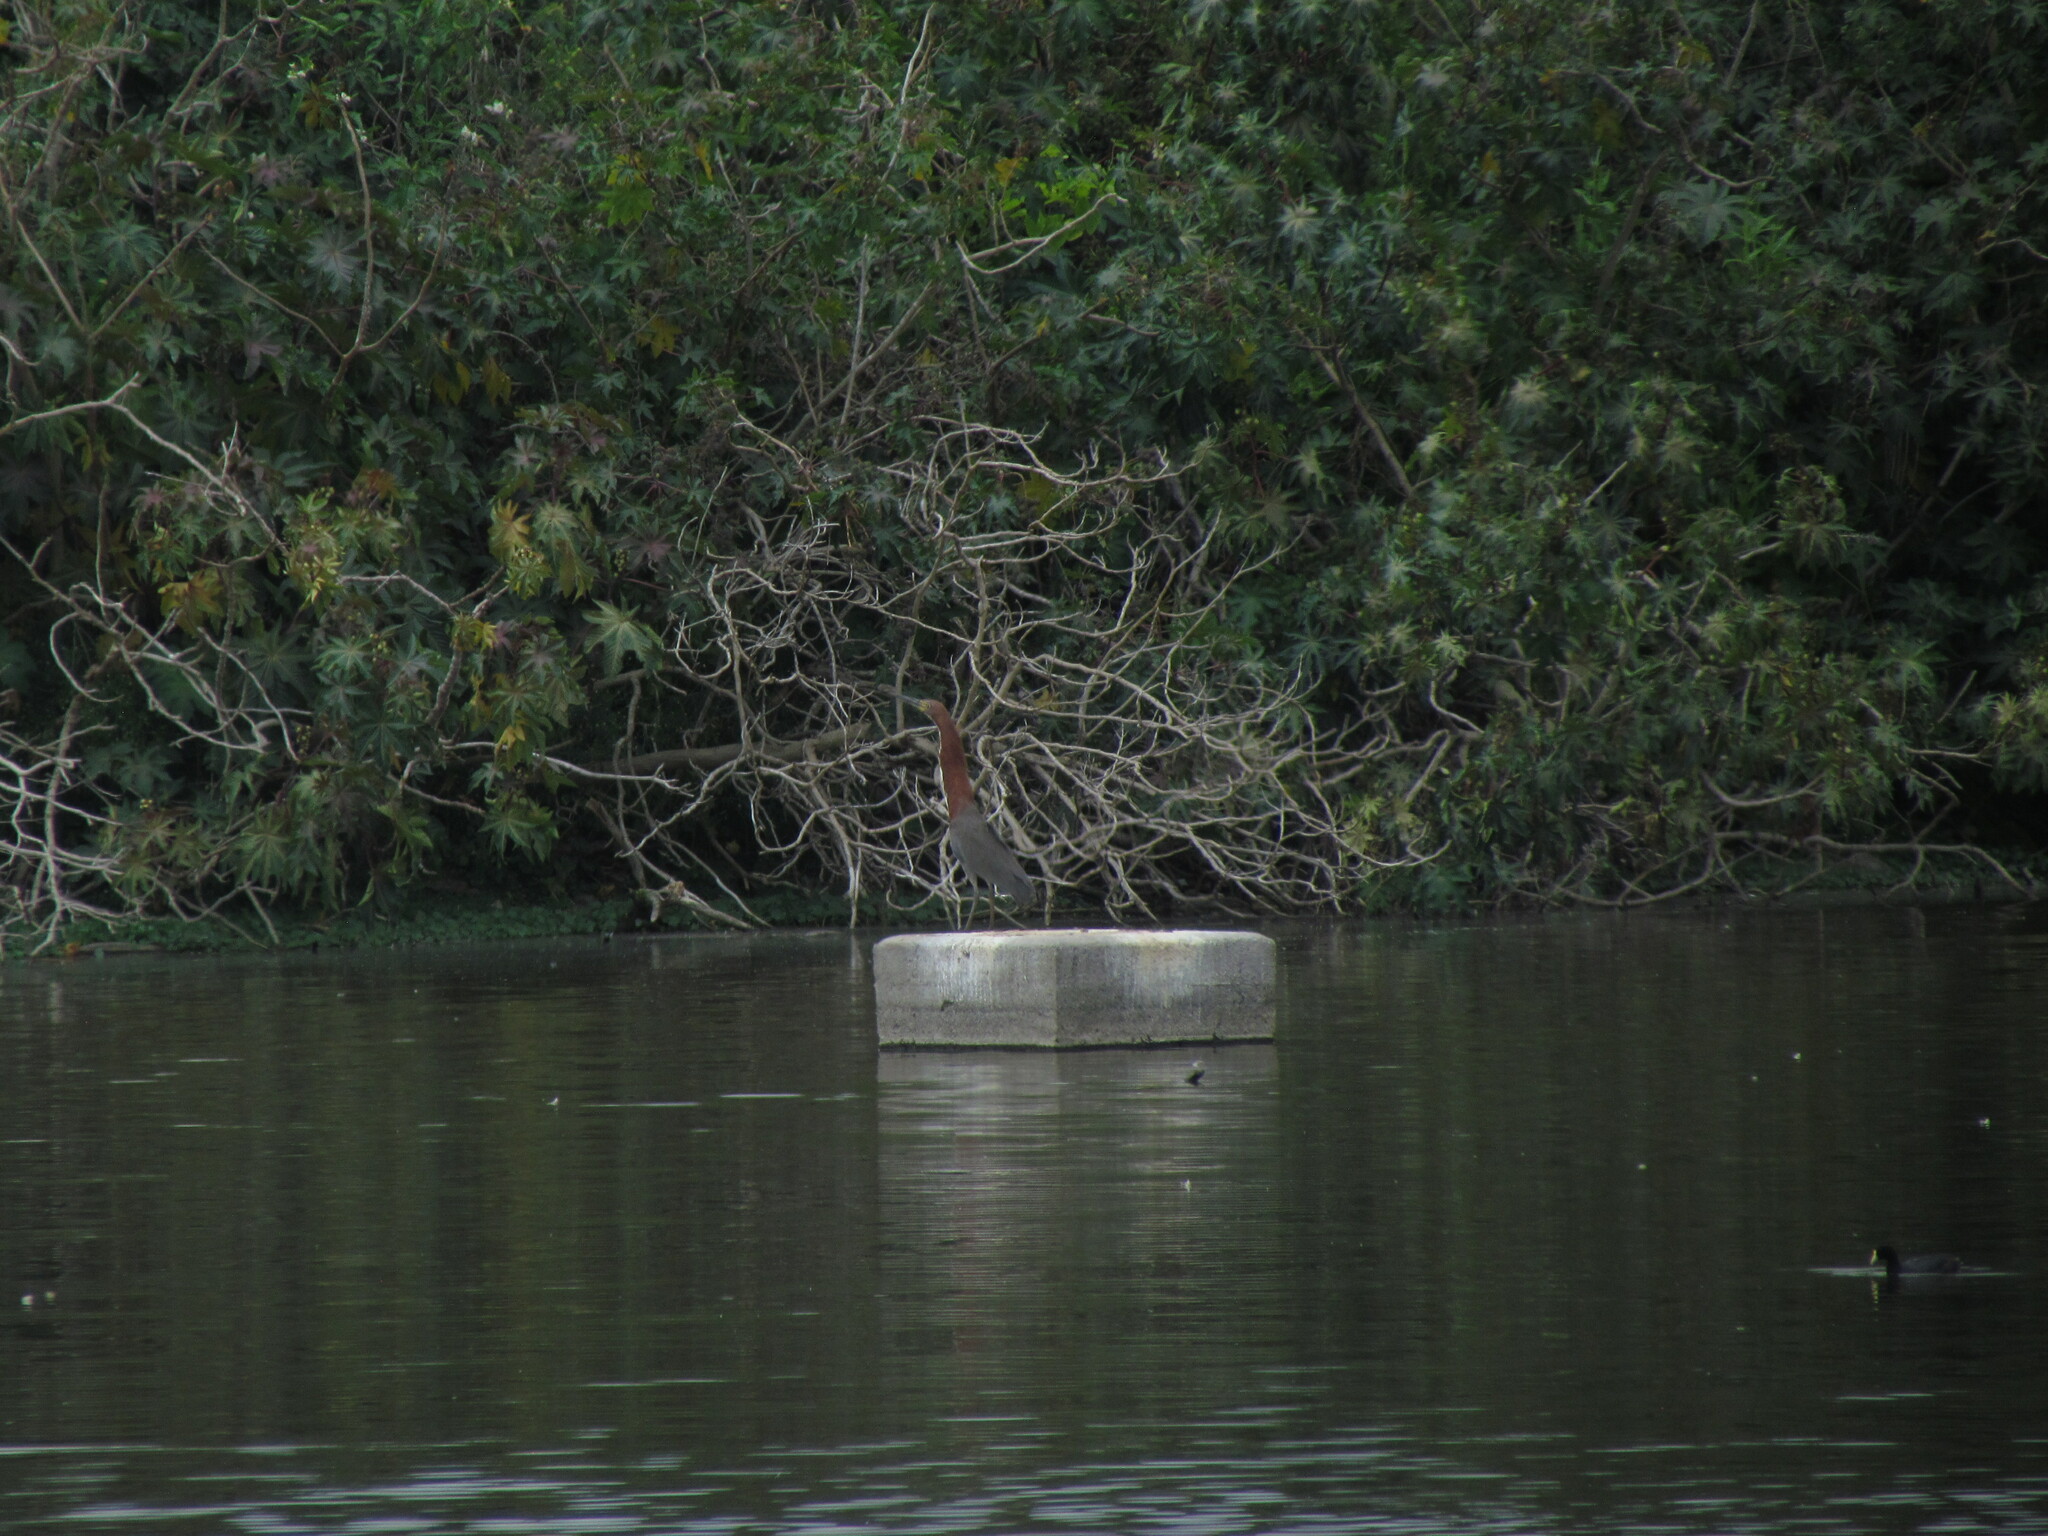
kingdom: Animalia
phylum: Chordata
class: Aves
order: Pelecaniformes
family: Ardeidae
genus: Tigrisoma
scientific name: Tigrisoma lineatum
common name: Rufescent tiger-heron
